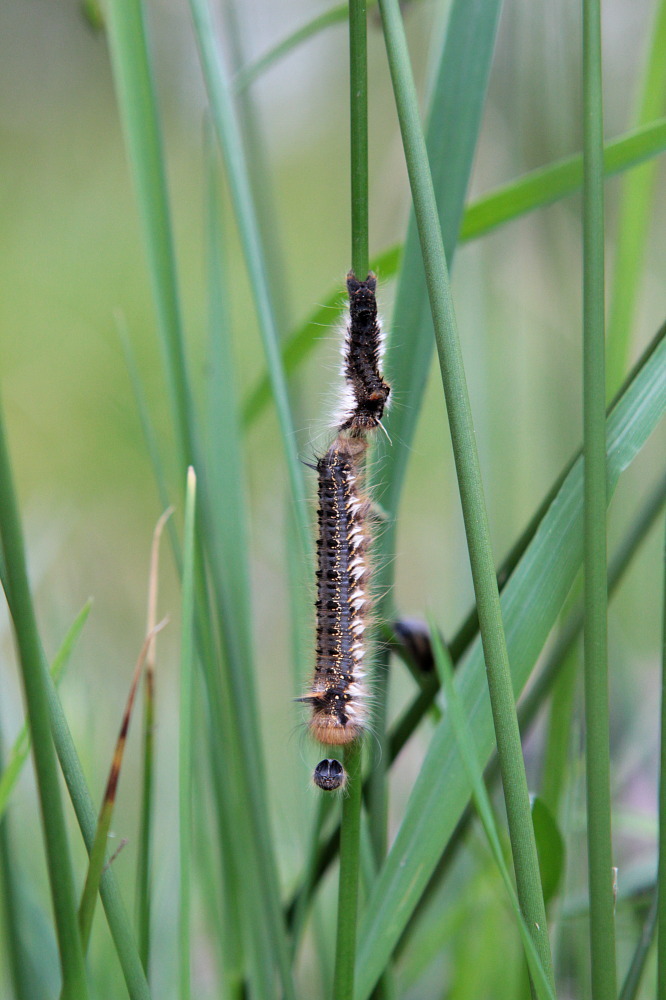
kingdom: Animalia
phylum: Arthropoda
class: Insecta
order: Lepidoptera
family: Lasiocampidae
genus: Euthrix
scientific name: Euthrix potatoria
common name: Drinker
